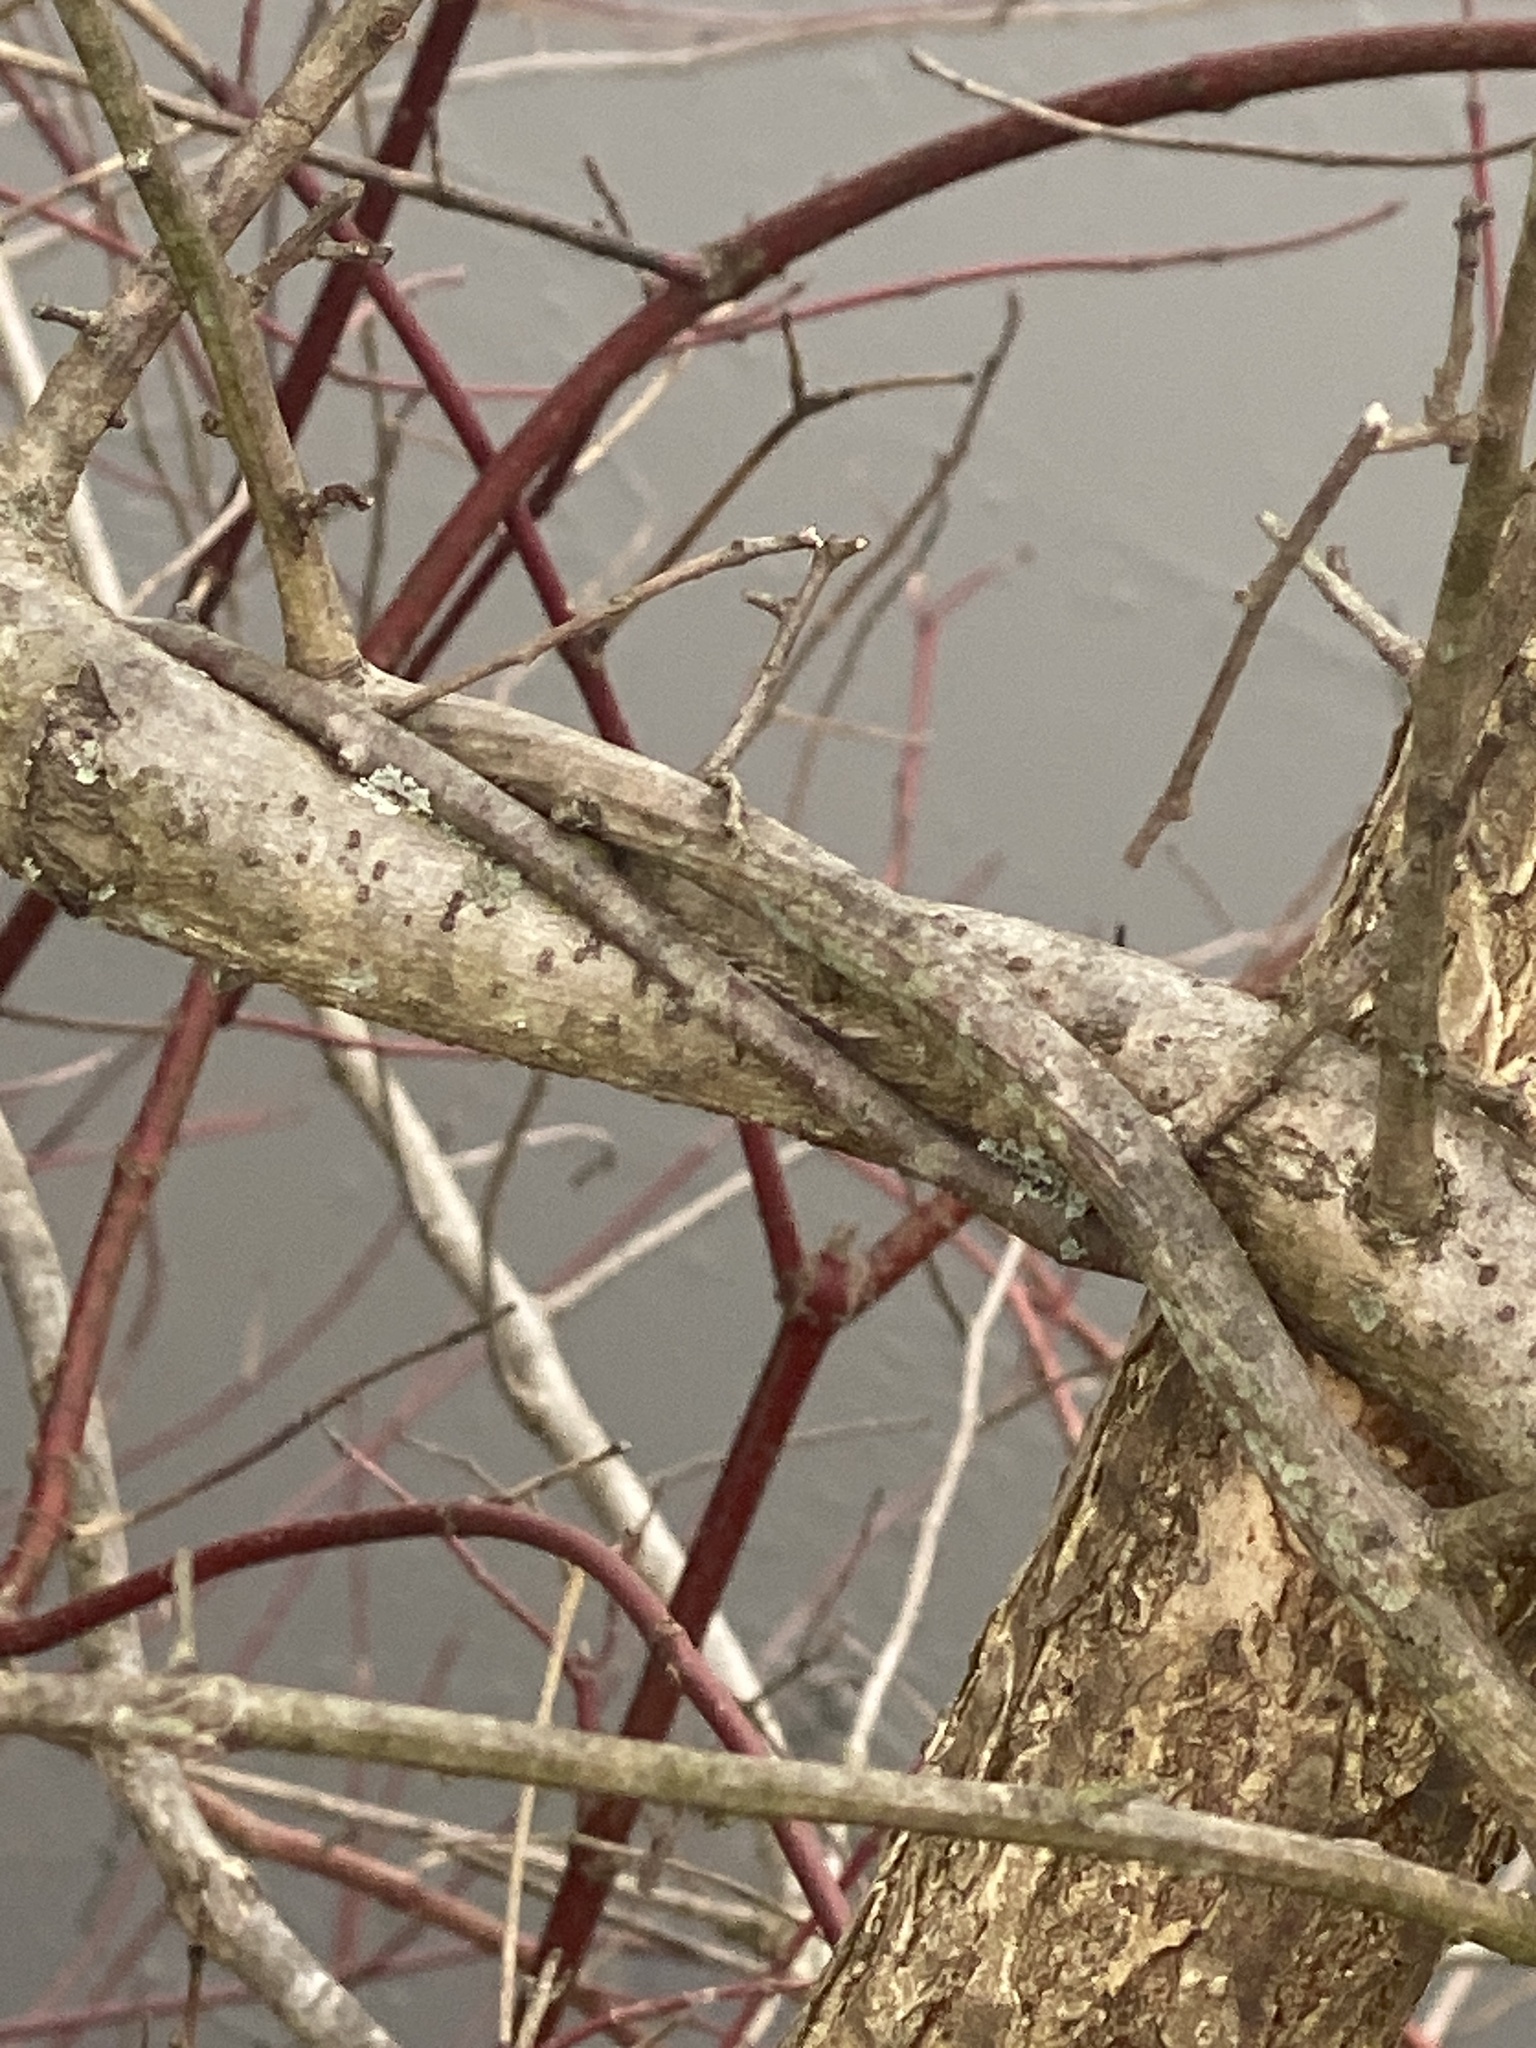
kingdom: Plantae
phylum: Tracheophyta
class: Magnoliopsida
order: Celastrales
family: Celastraceae
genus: Celastrus
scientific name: Celastrus orbiculatus
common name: Oriental bittersweet
